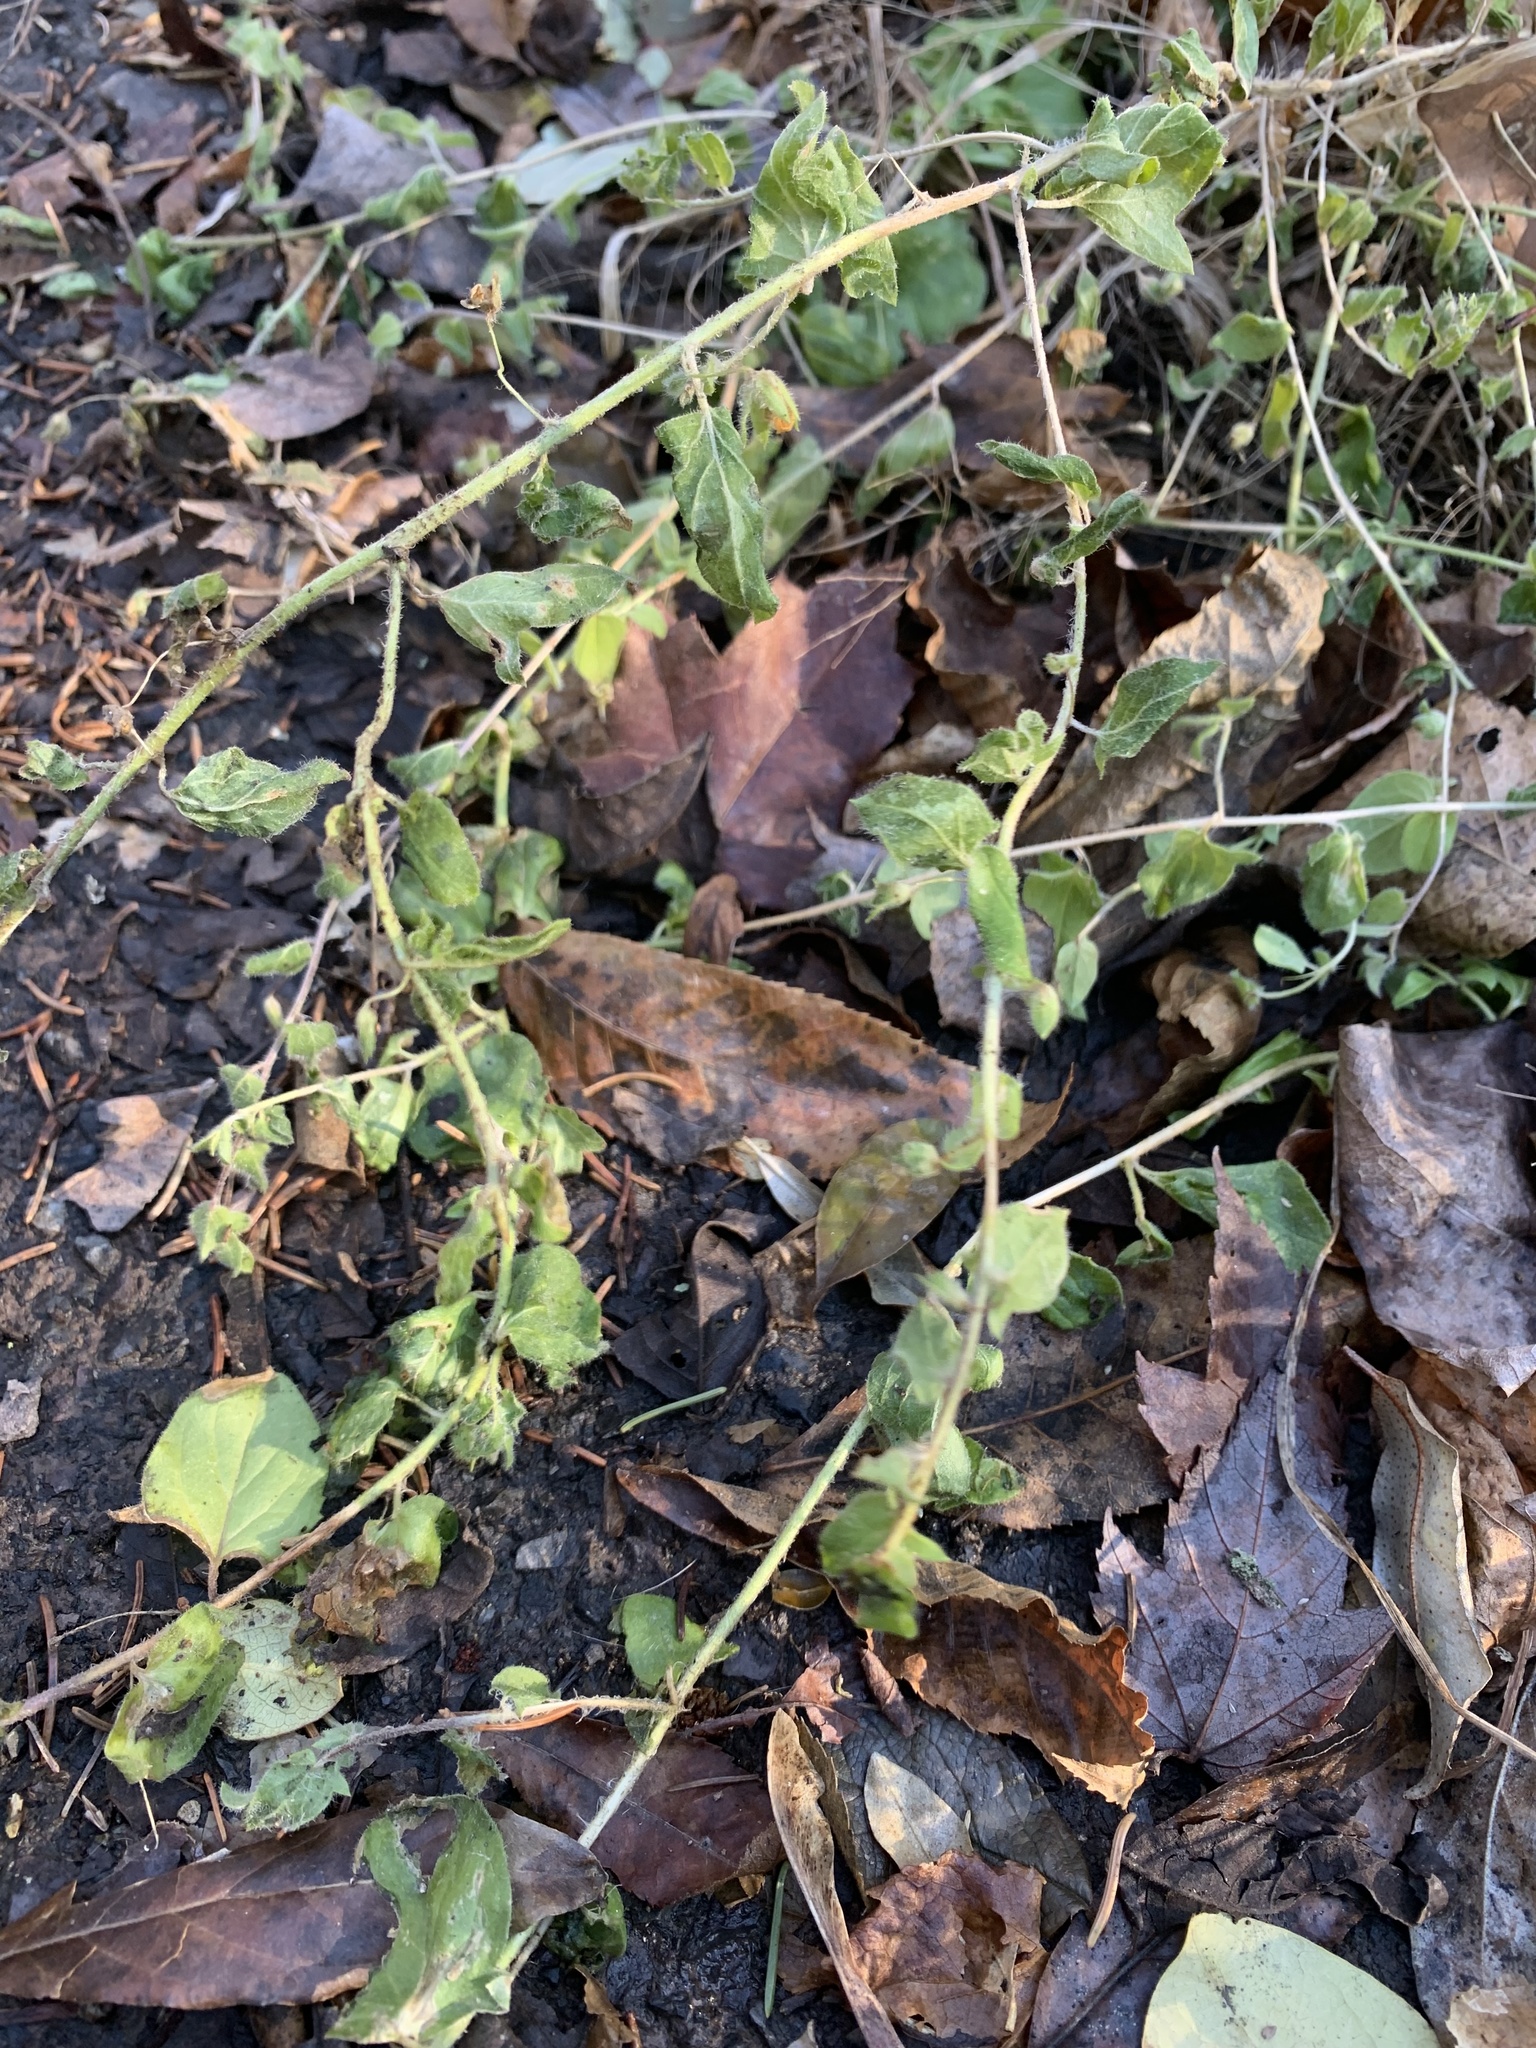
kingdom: Plantae
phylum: Tracheophyta
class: Magnoliopsida
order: Lamiales
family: Plantaginaceae
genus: Kickxia
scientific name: Kickxia elatine
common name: Sharp-leaved fluellen
